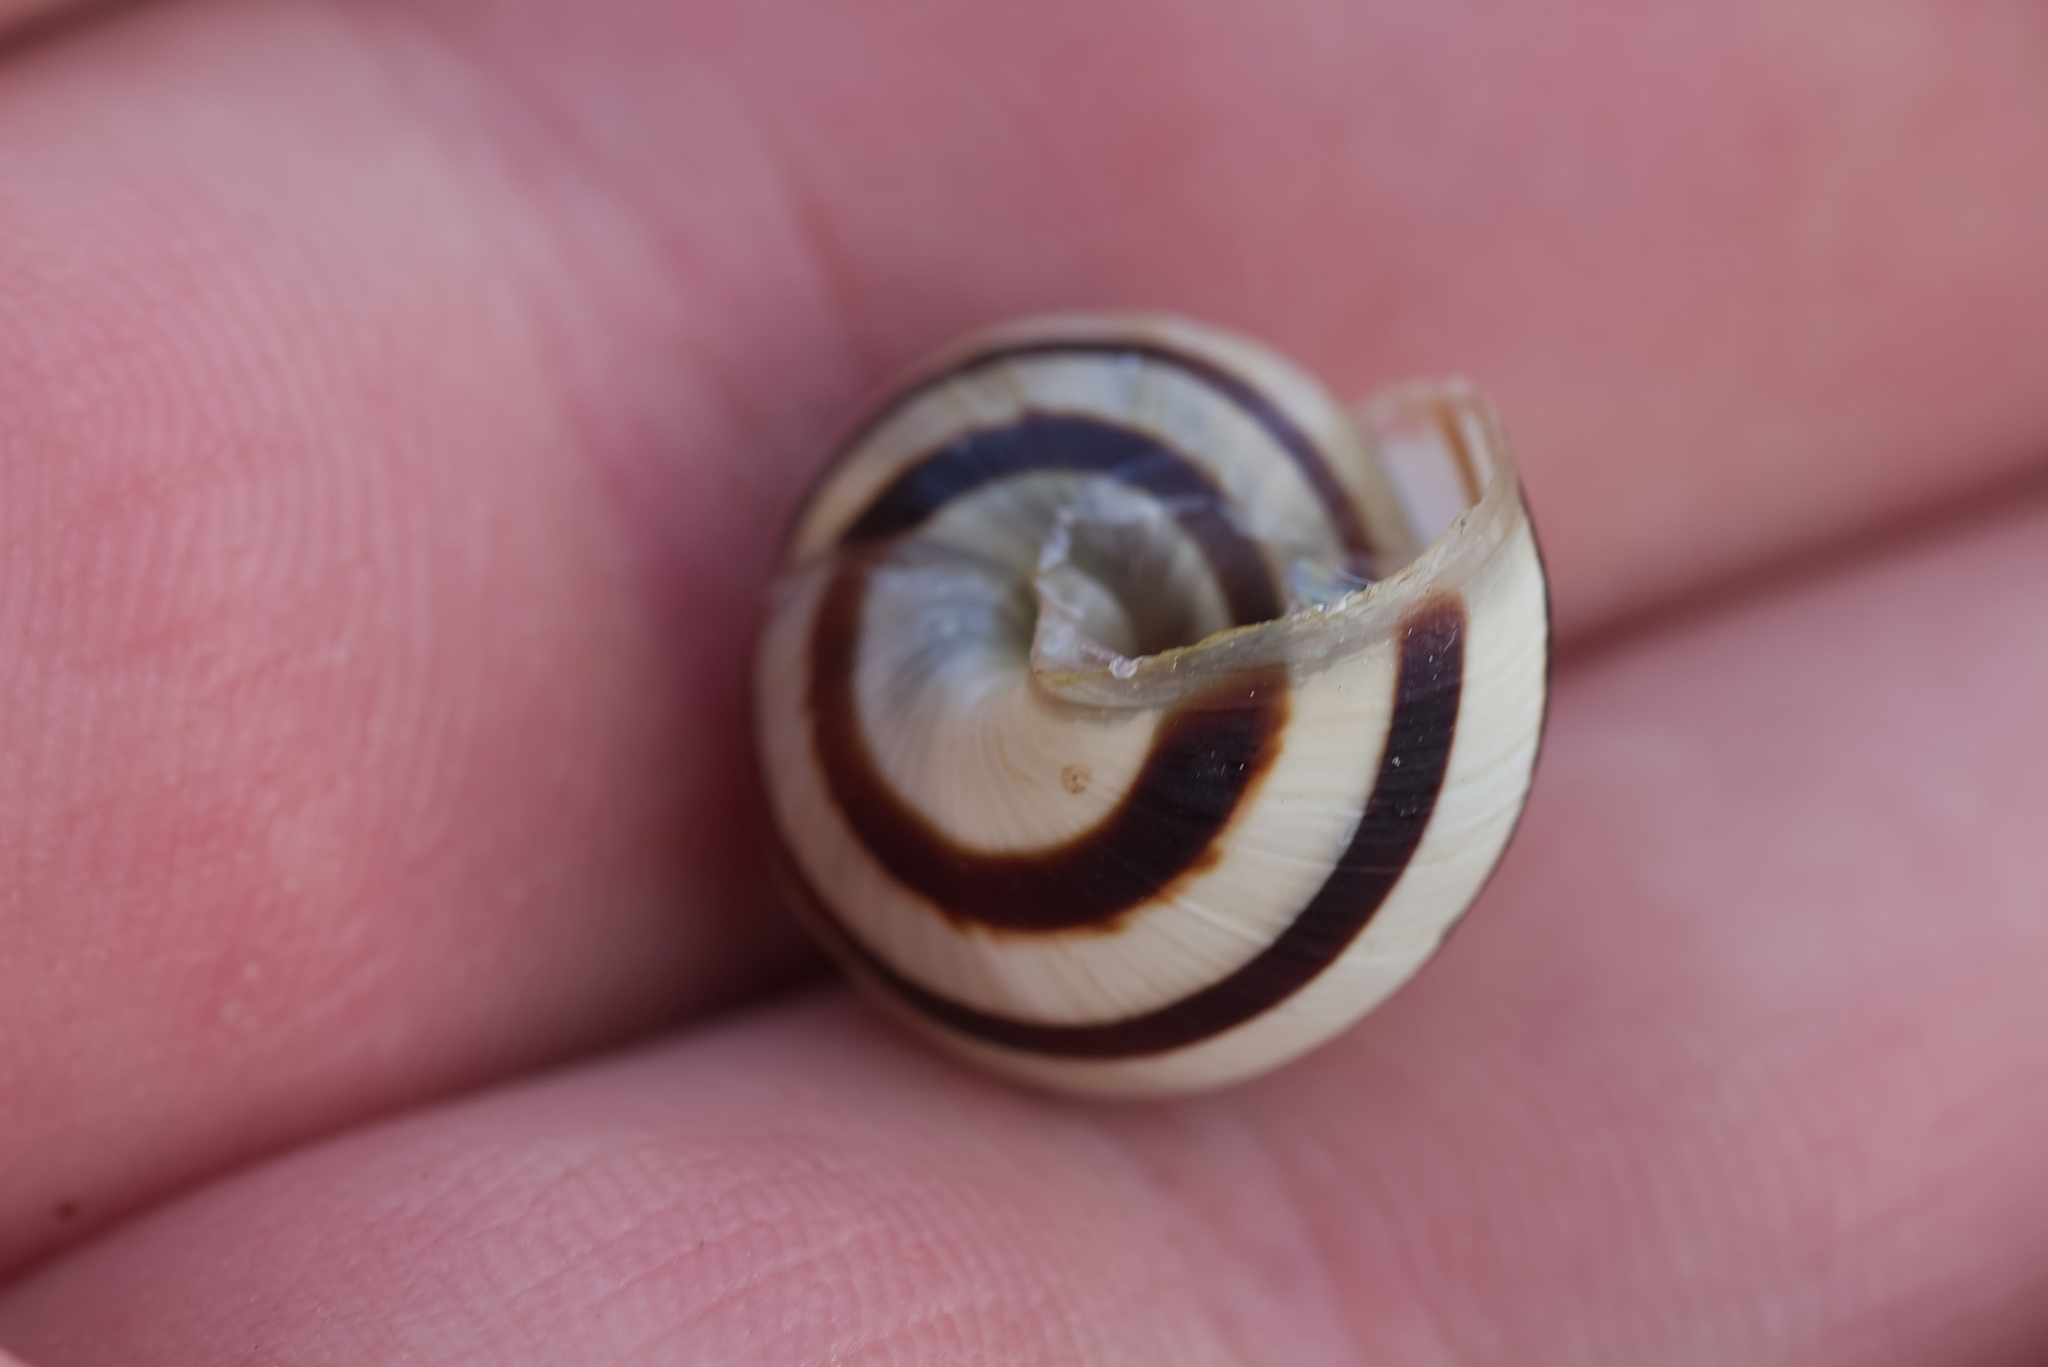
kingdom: Animalia
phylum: Mollusca
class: Gastropoda
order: Stylommatophora
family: Helicidae
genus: Caucasotachea
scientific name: Caucasotachea vindobonensis
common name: European helicid land snail
